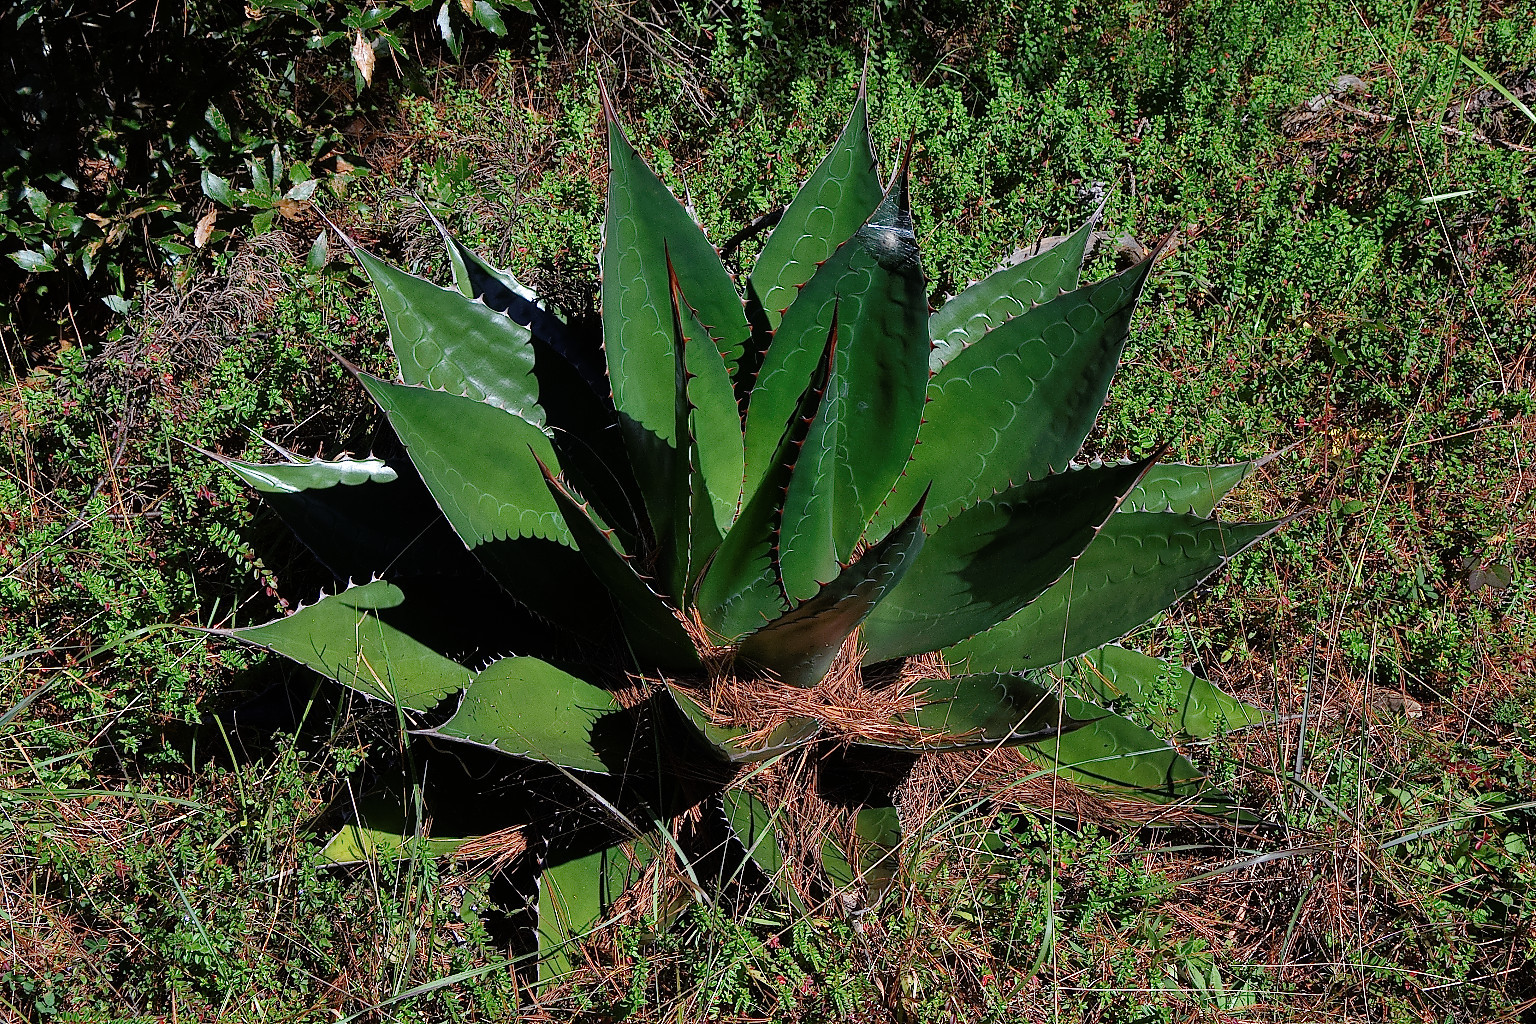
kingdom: Plantae
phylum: Tracheophyta
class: Liliopsida
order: Asparagales
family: Asparagaceae
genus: Agave
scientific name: Agave obscura
